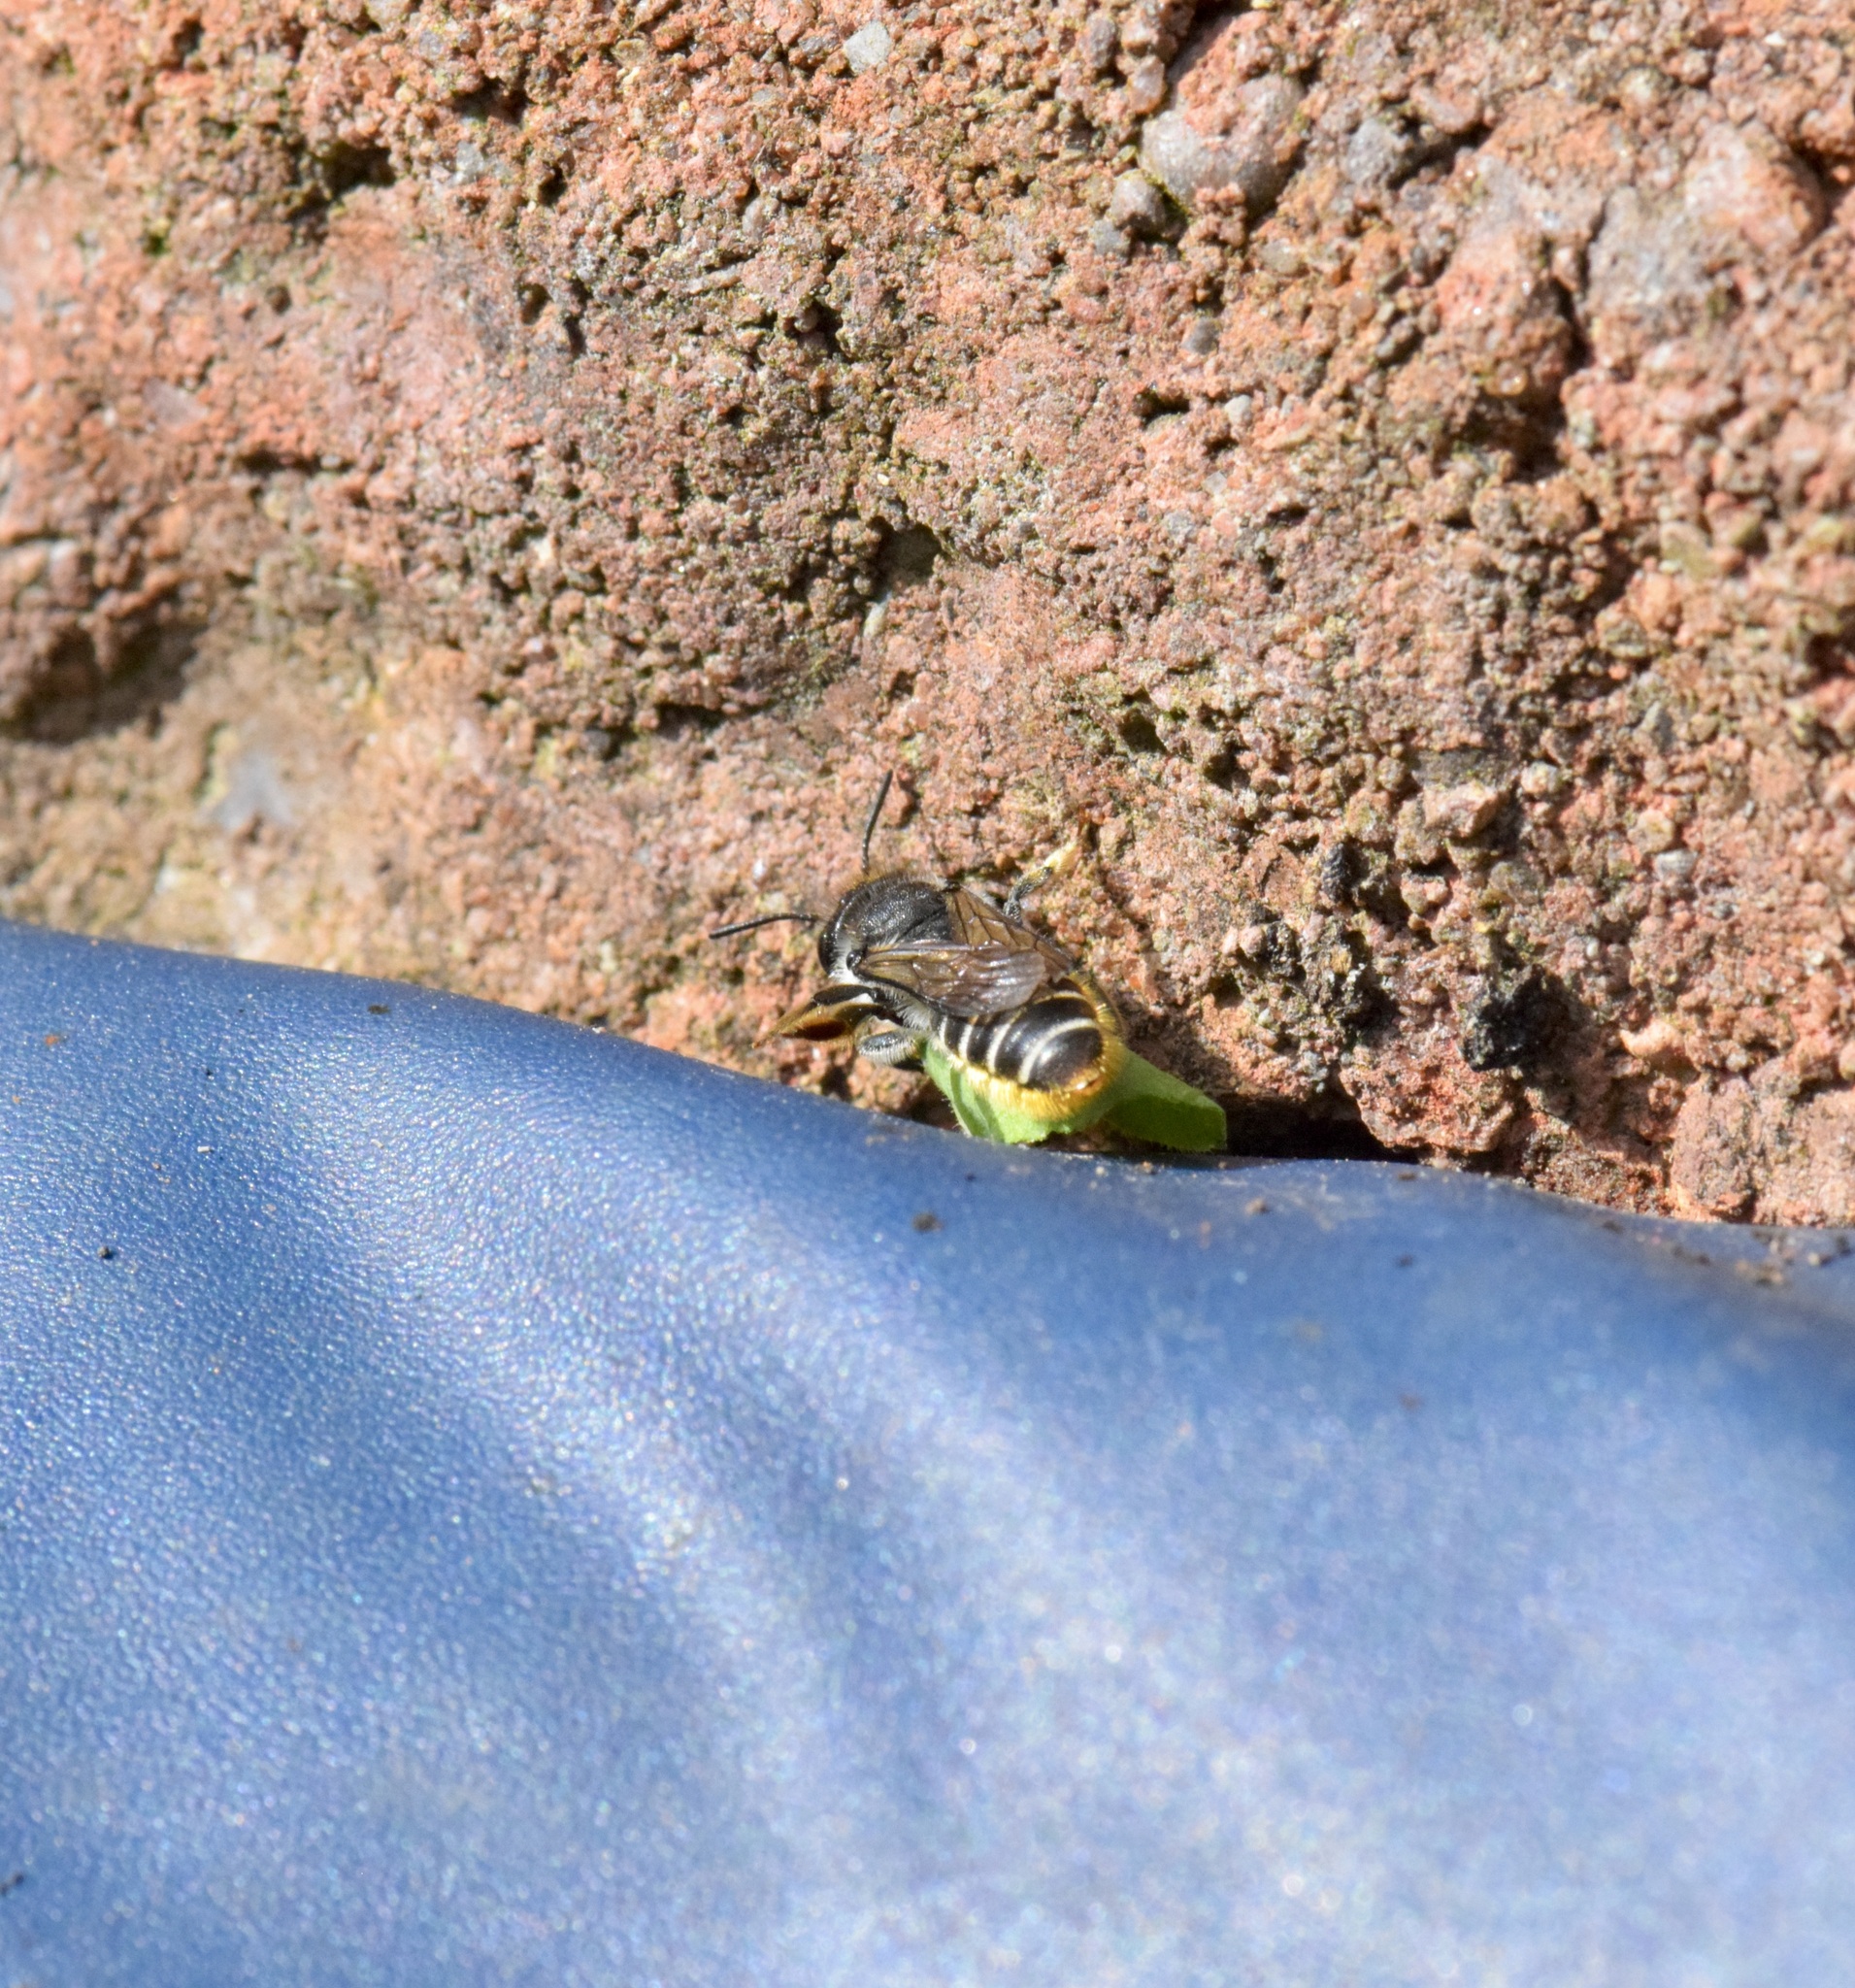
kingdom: Animalia
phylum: Arthropoda
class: Insecta
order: Hymenoptera
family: Megachilidae
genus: Megachile
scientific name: Megachile relativa
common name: Golden-tailed leafcutter
